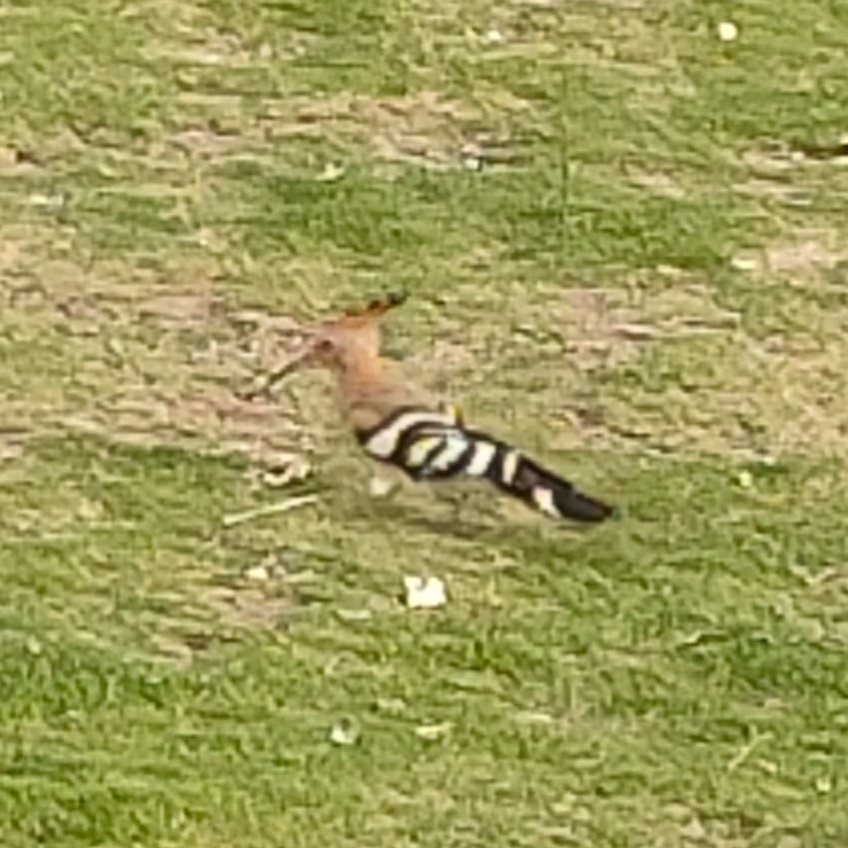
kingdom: Animalia
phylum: Chordata
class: Aves
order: Bucerotiformes
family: Upupidae
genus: Upupa
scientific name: Upupa epops
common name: Eurasian hoopoe
